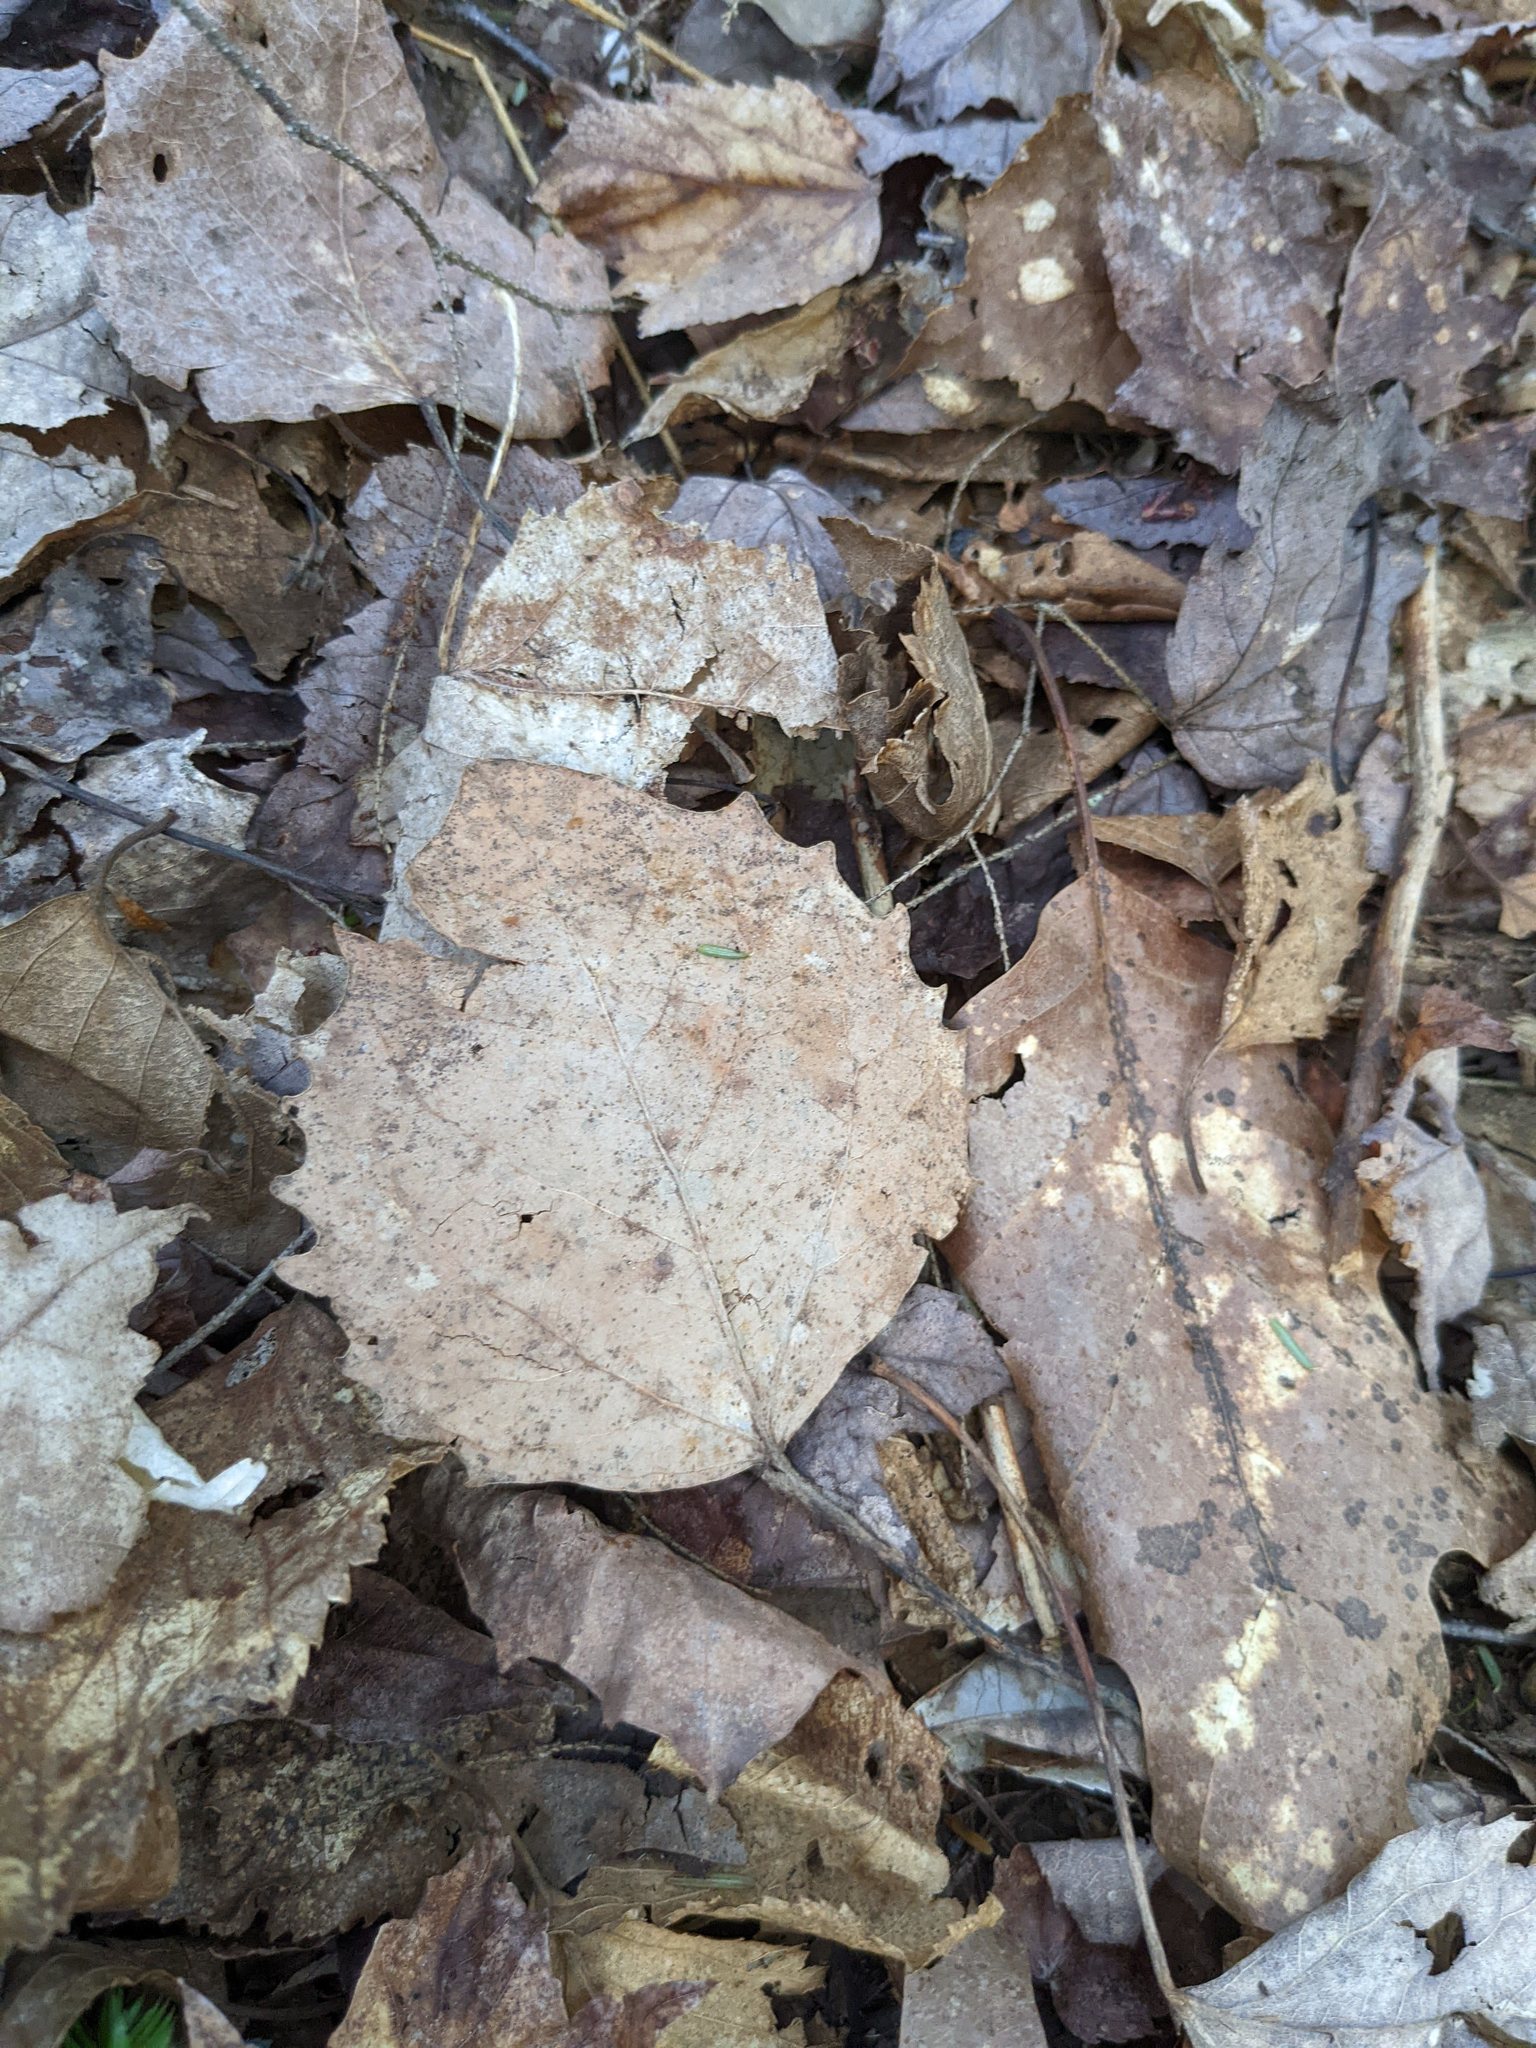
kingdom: Plantae
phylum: Tracheophyta
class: Magnoliopsida
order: Malpighiales
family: Salicaceae
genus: Populus
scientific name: Populus grandidentata
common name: Bigtooth aspen
